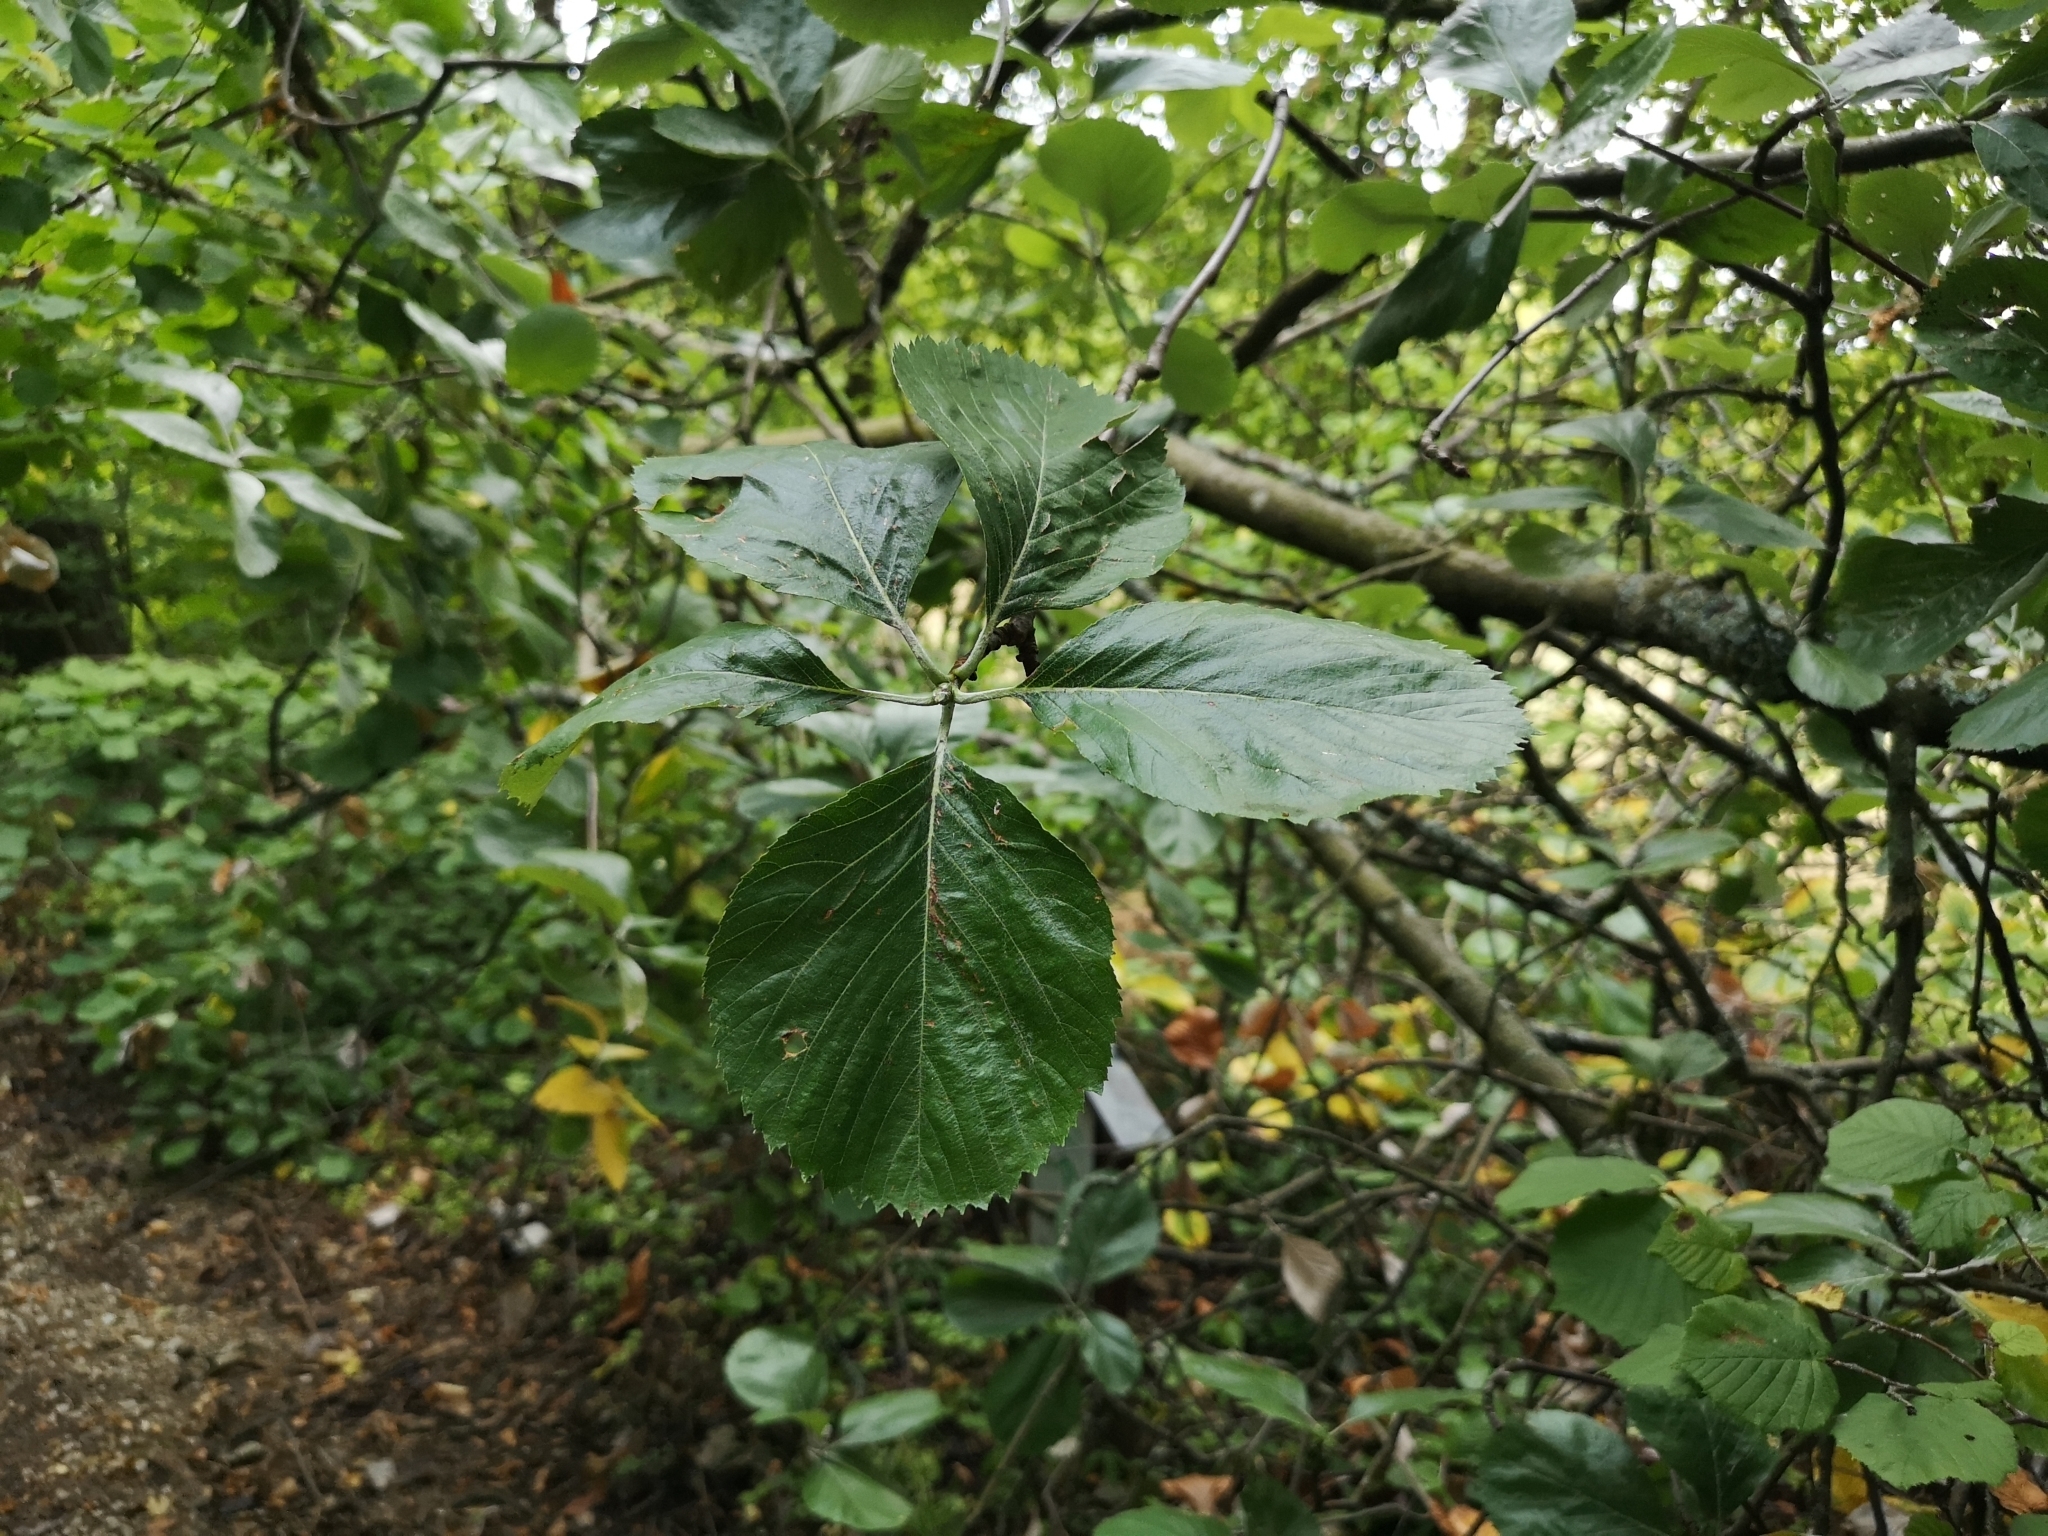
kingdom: Plantae
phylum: Tracheophyta
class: Magnoliopsida
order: Rosales
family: Rosaceae
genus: Aria
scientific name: Aria collina
